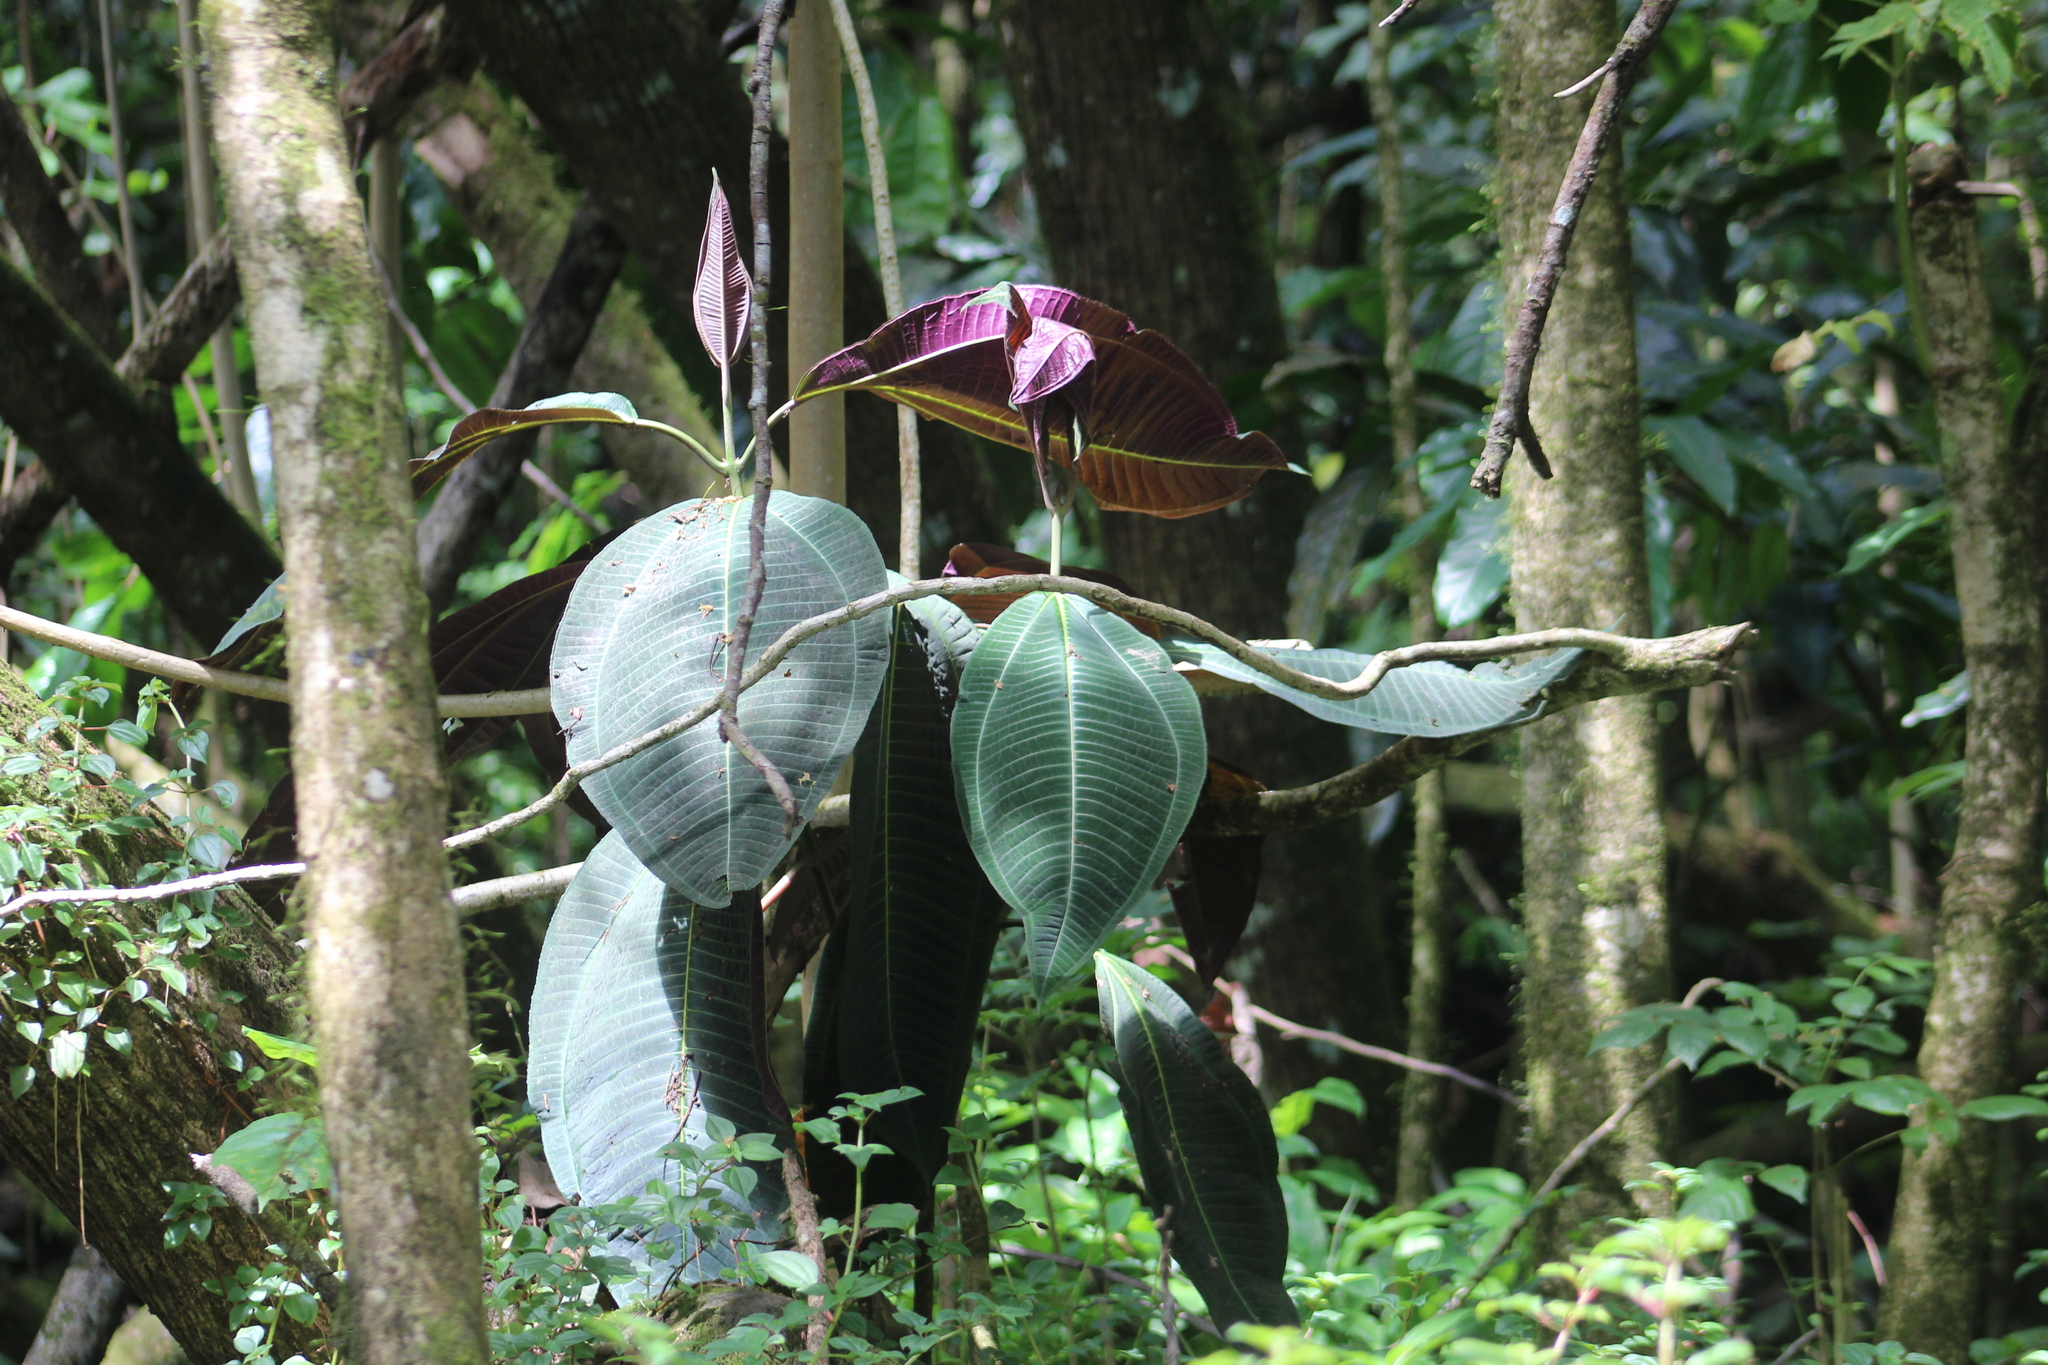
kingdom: Plantae
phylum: Tracheophyta
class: Magnoliopsida
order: Myrtales
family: Melastomataceae
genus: Miconia
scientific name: Miconia calvescens
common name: Purple plague
